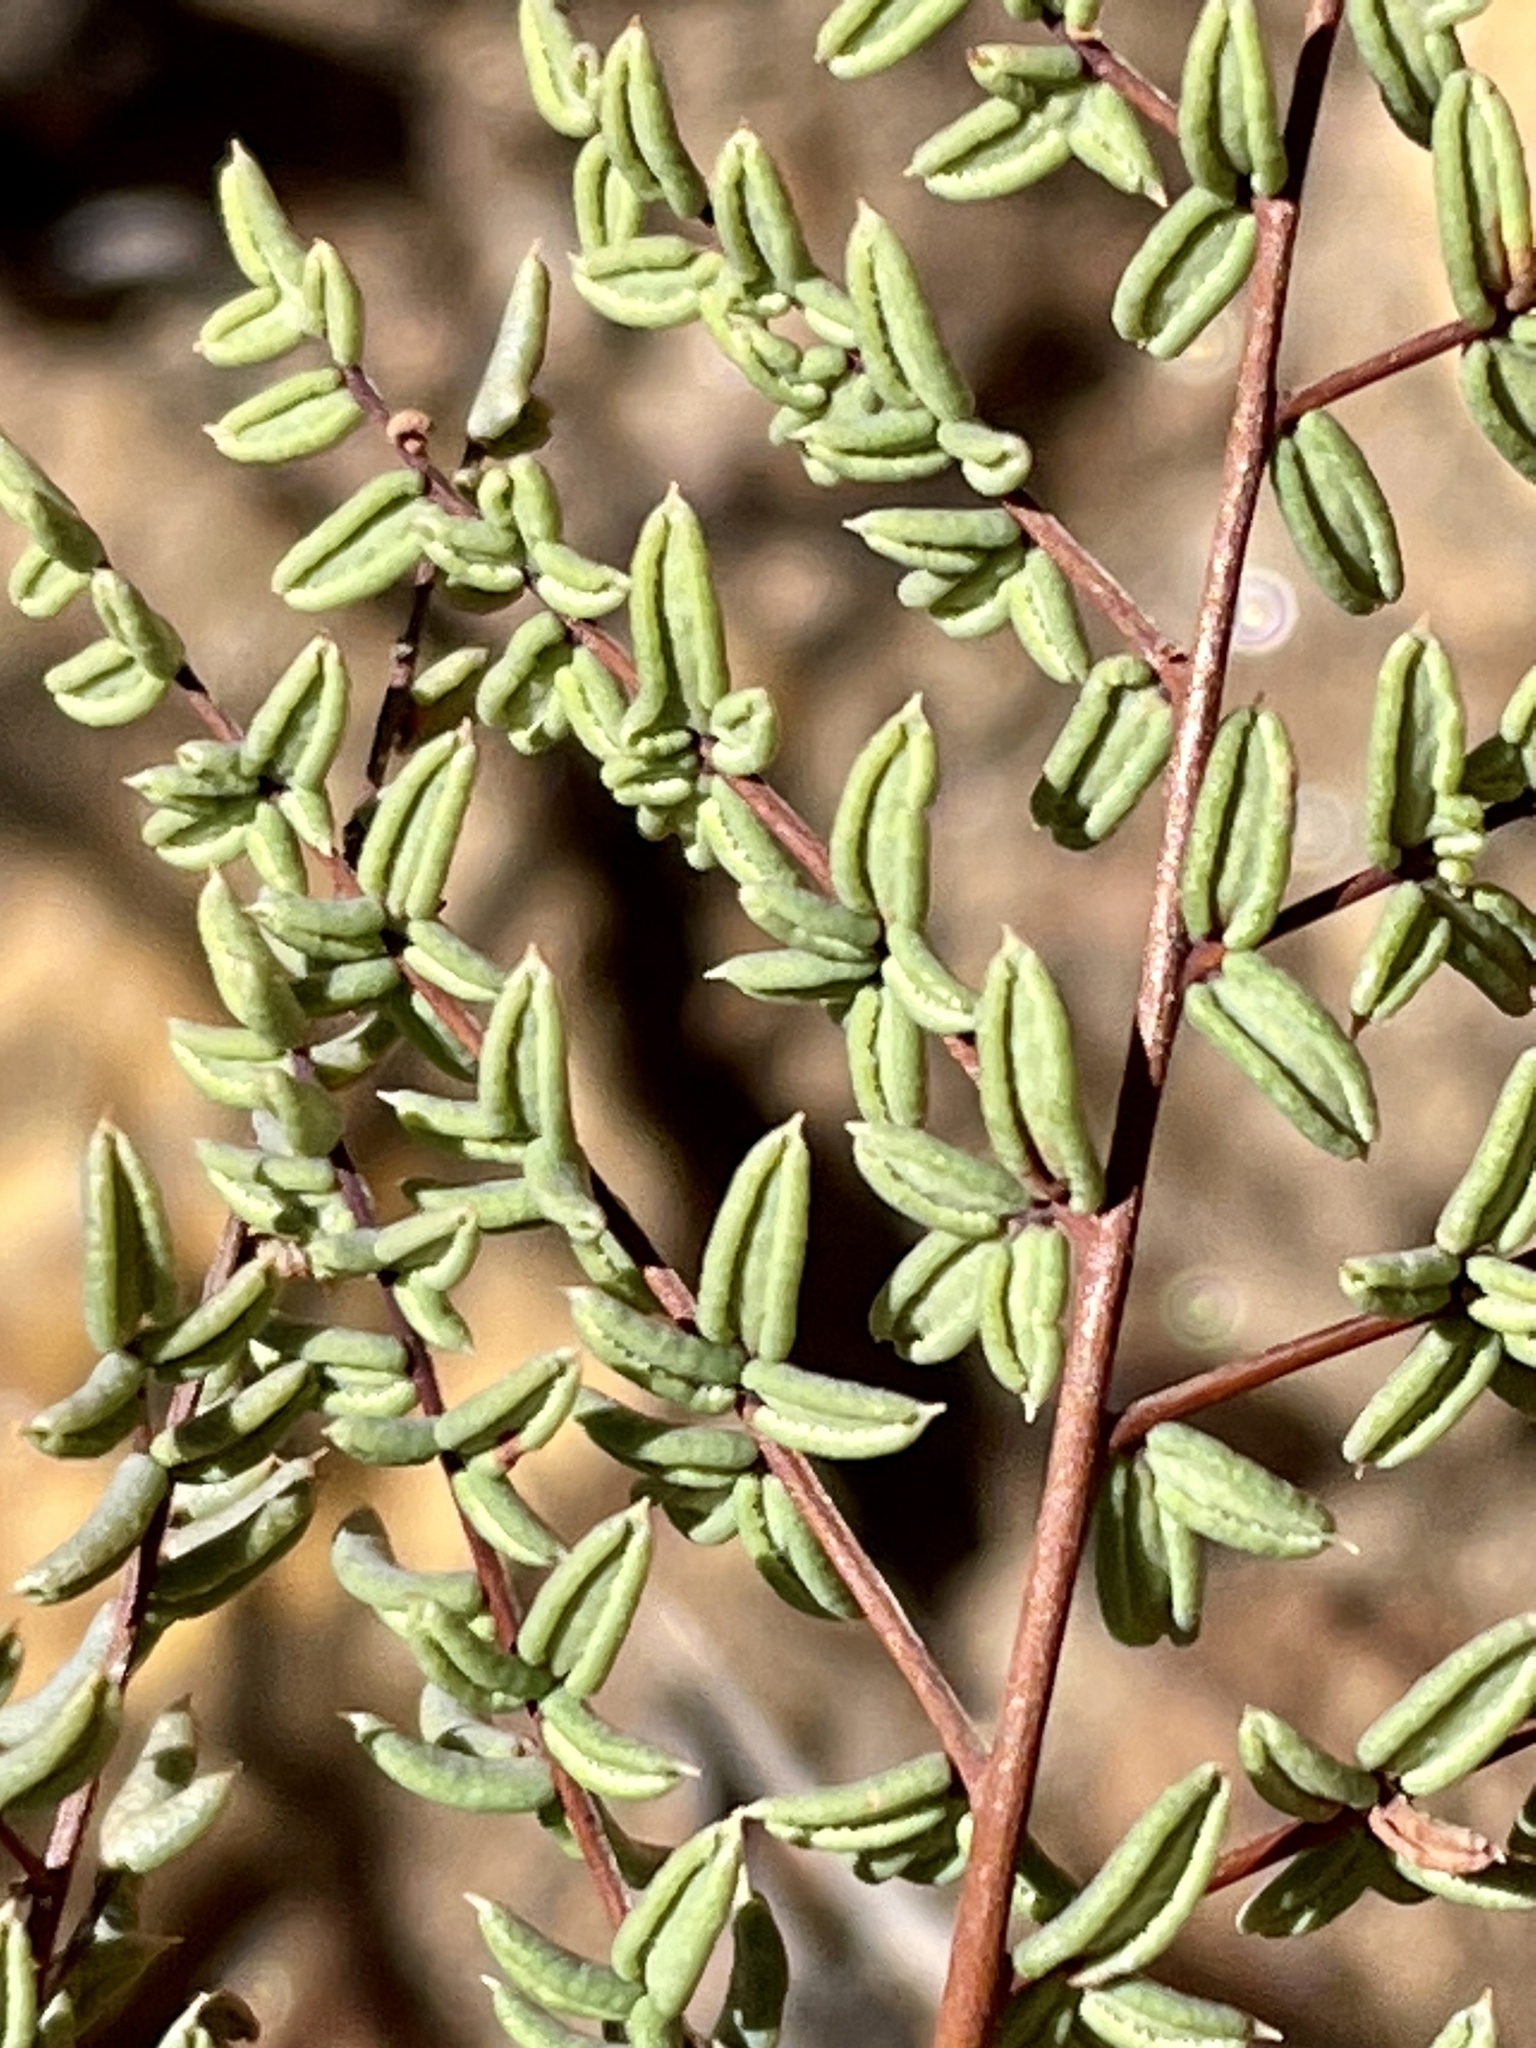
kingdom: Plantae
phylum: Tracheophyta
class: Polypodiopsida
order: Polypodiales
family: Pteridaceae
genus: Pellaea
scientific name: Pellaea mucronata
